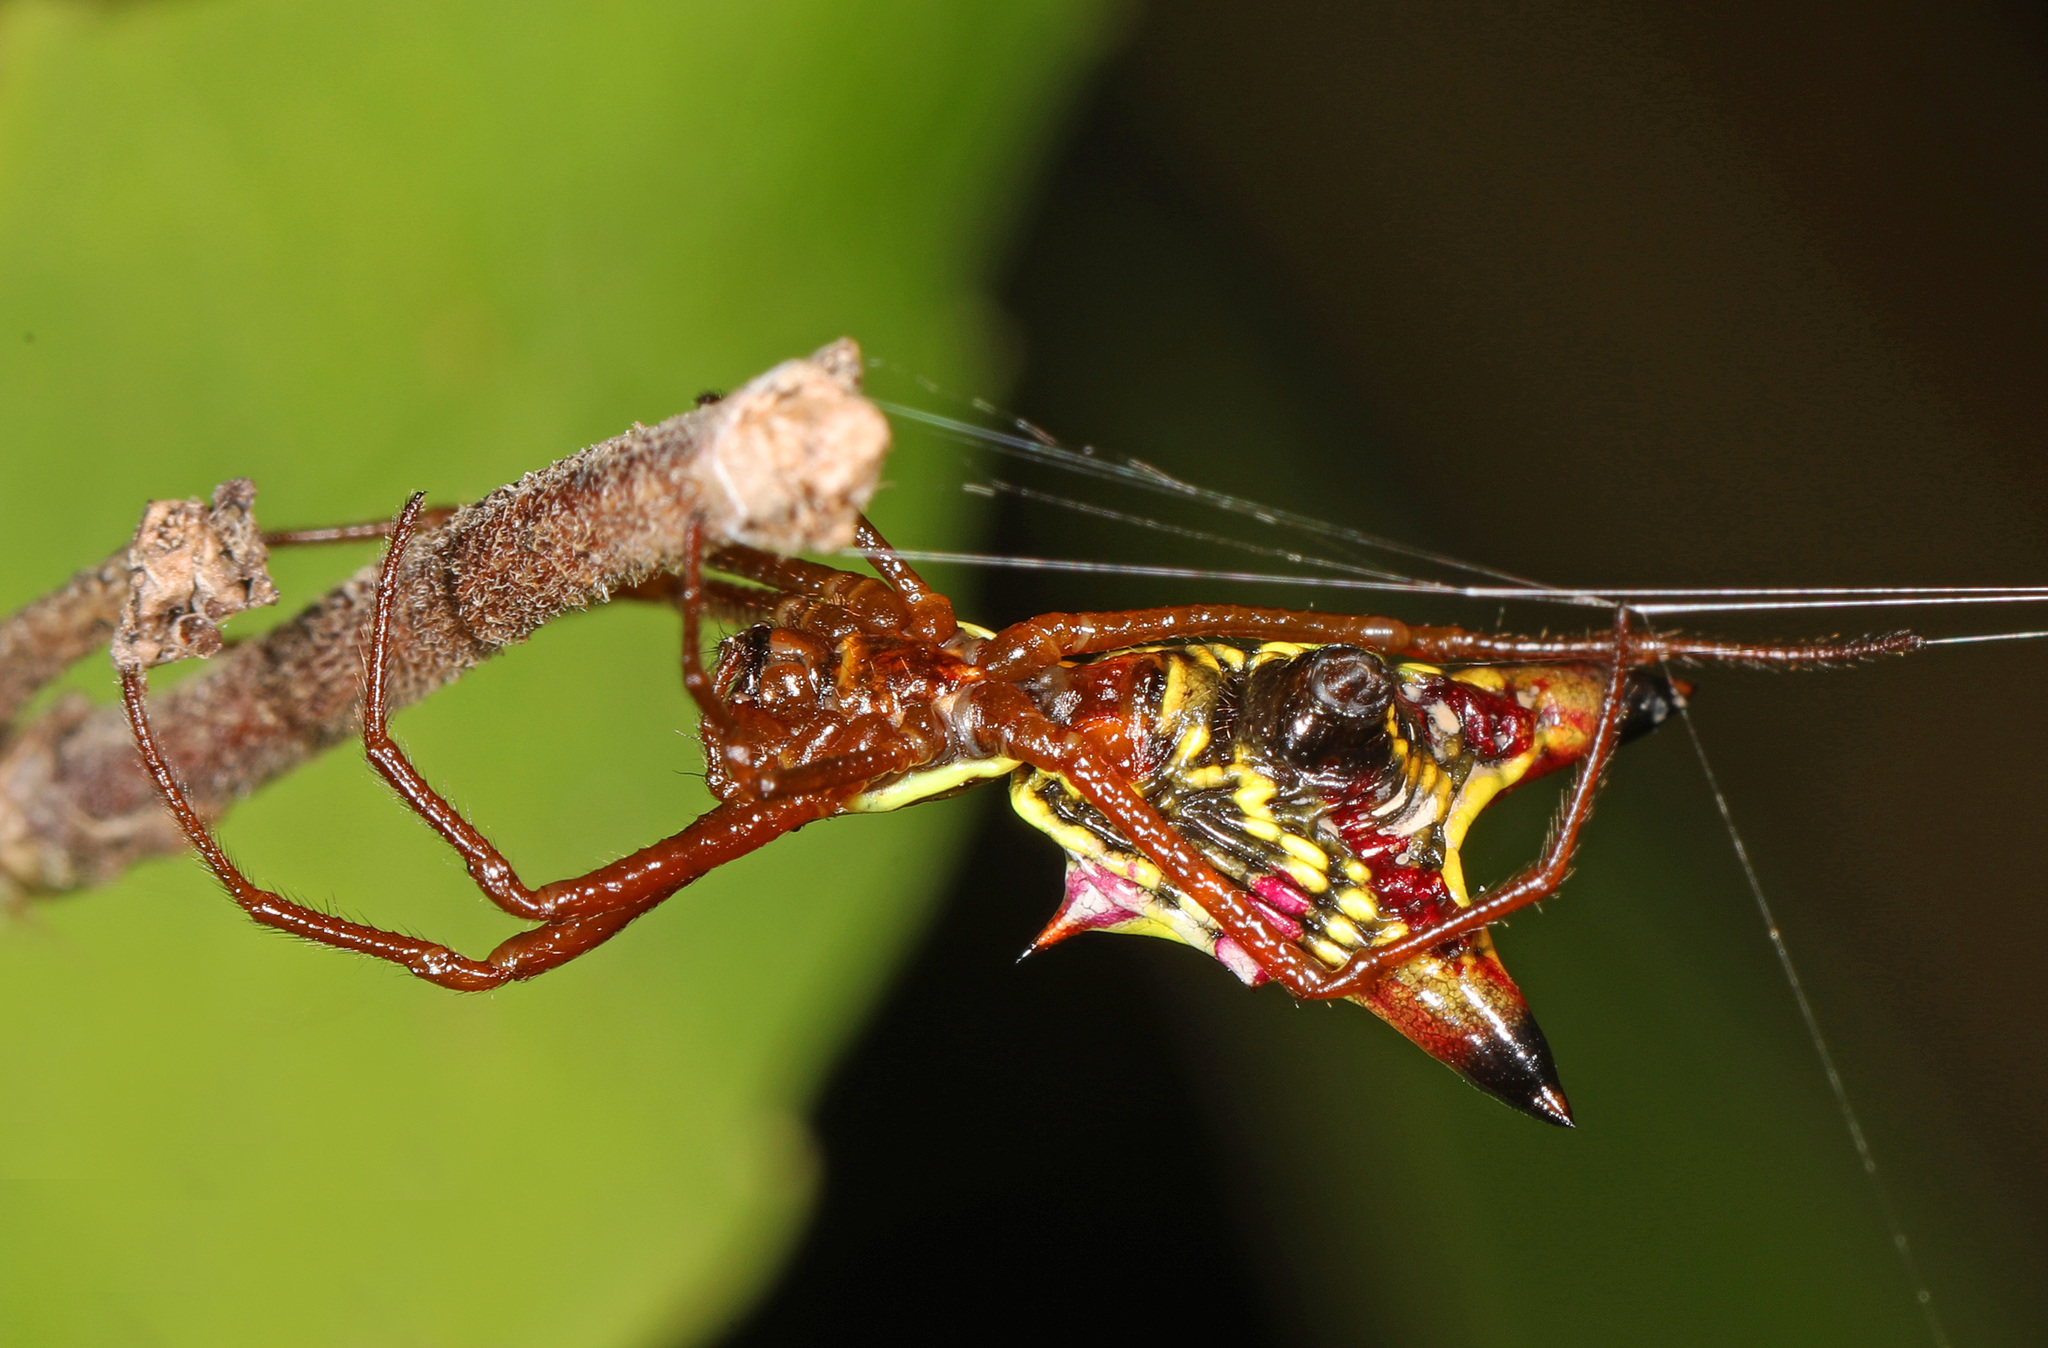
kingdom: Animalia
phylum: Arthropoda
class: Arachnida
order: Araneae
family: Araneidae
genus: Micrathena
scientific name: Micrathena sagittata
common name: Orb weavers
